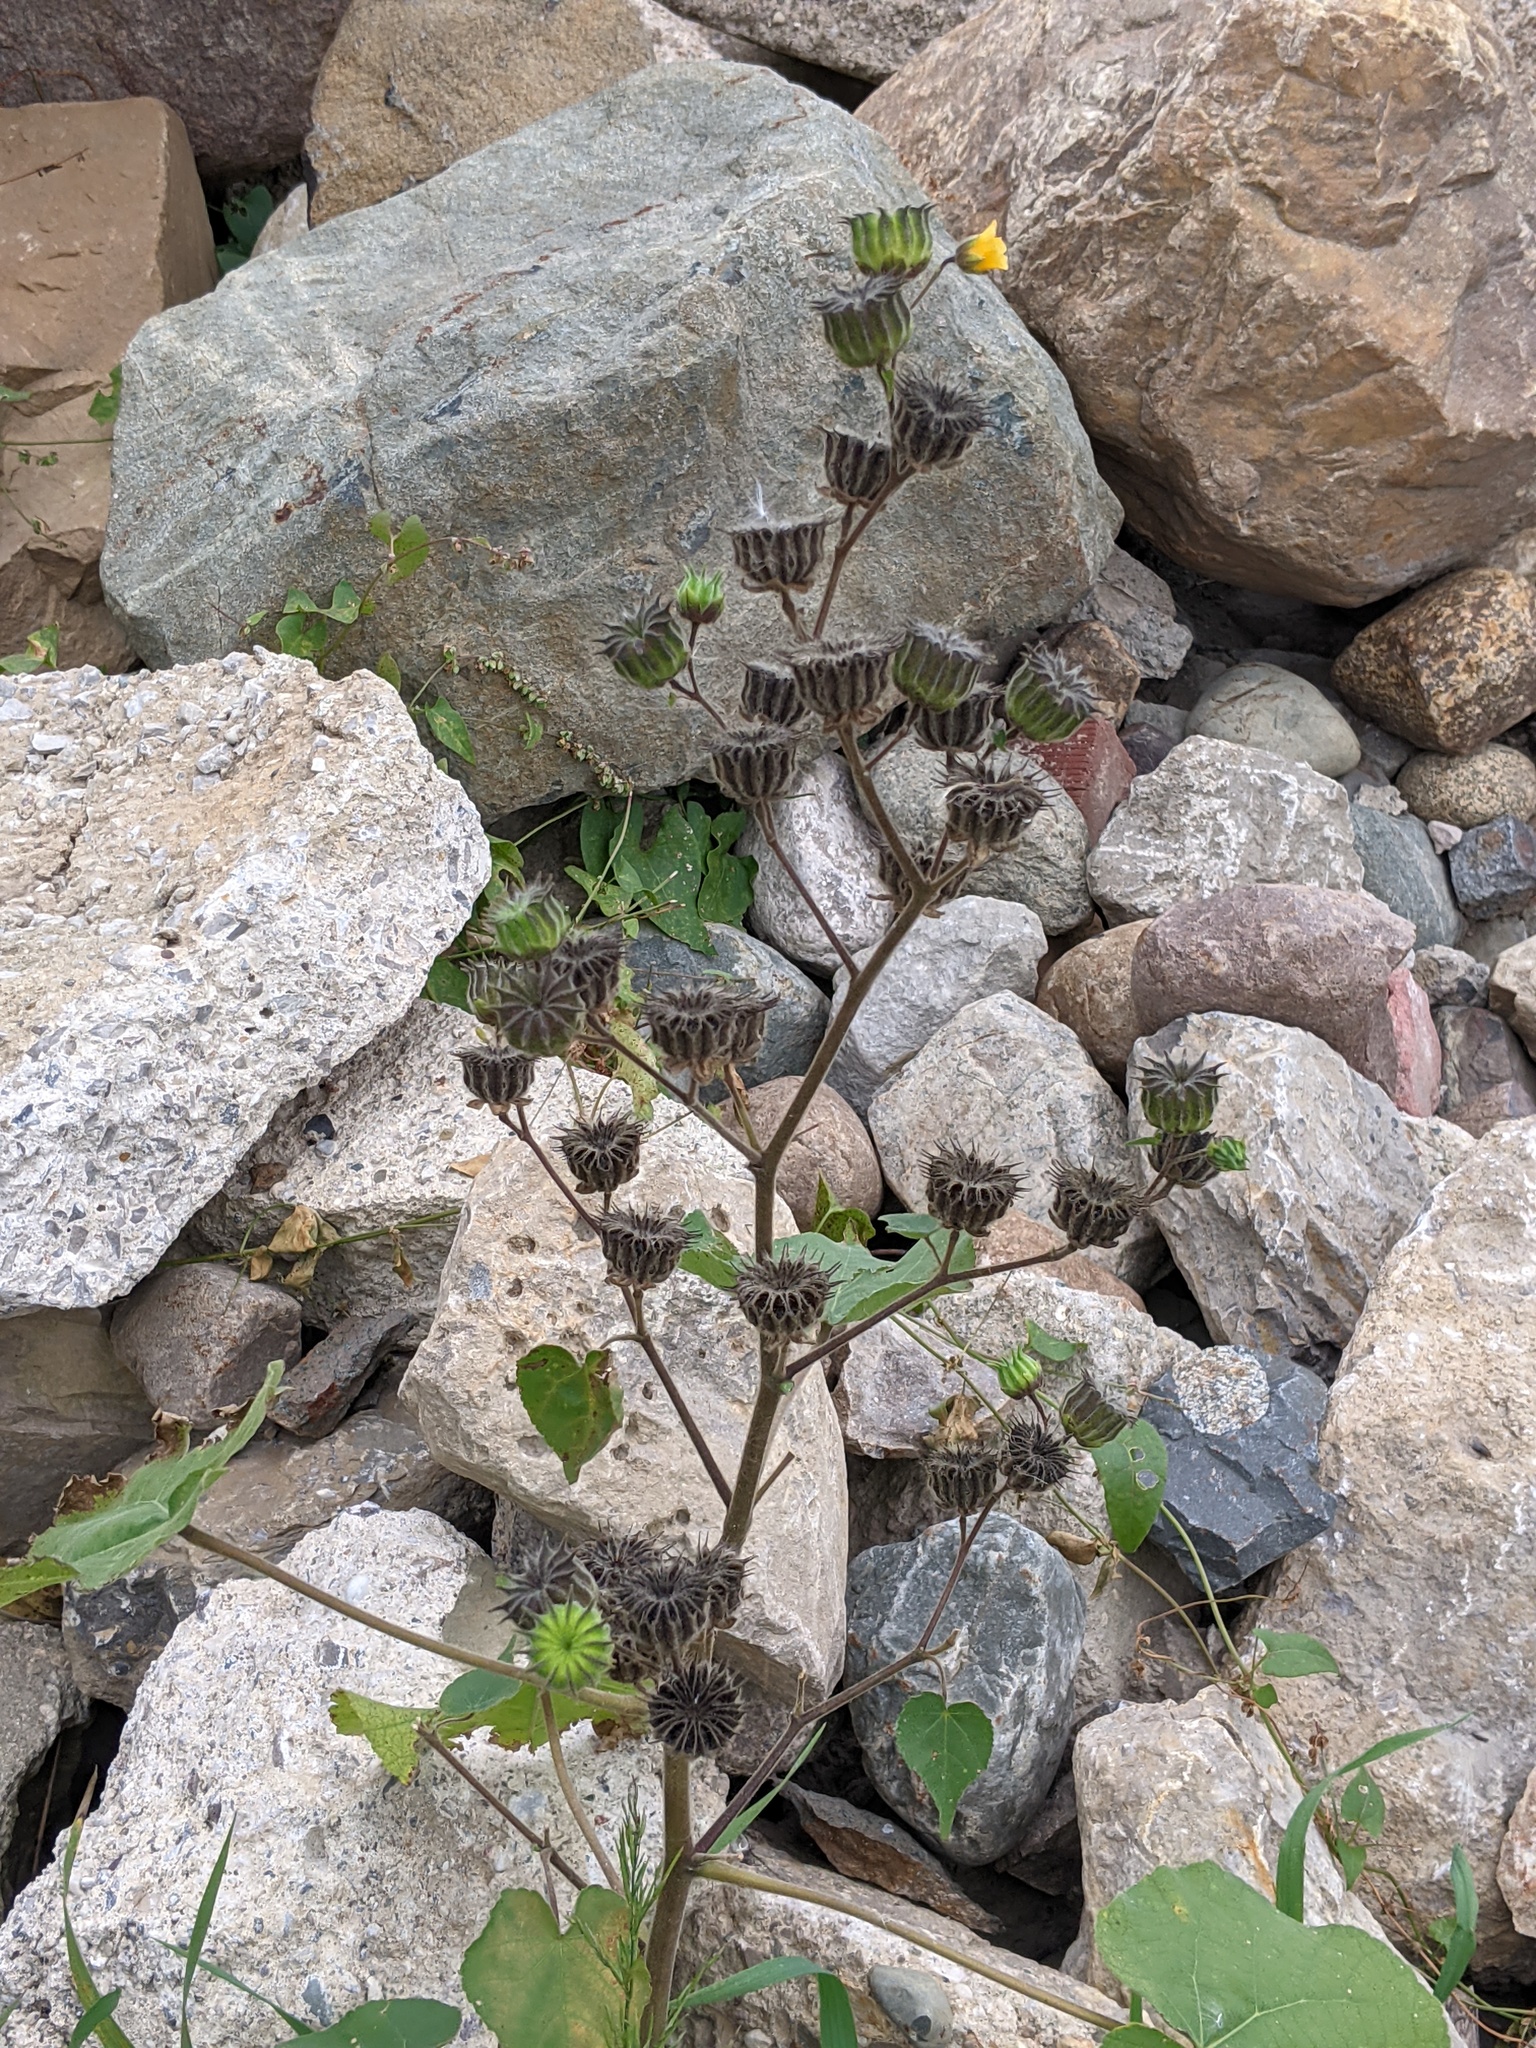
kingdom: Plantae
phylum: Tracheophyta
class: Magnoliopsida
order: Malvales
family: Malvaceae
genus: Abutilon
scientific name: Abutilon theophrasti
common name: Velvetleaf
